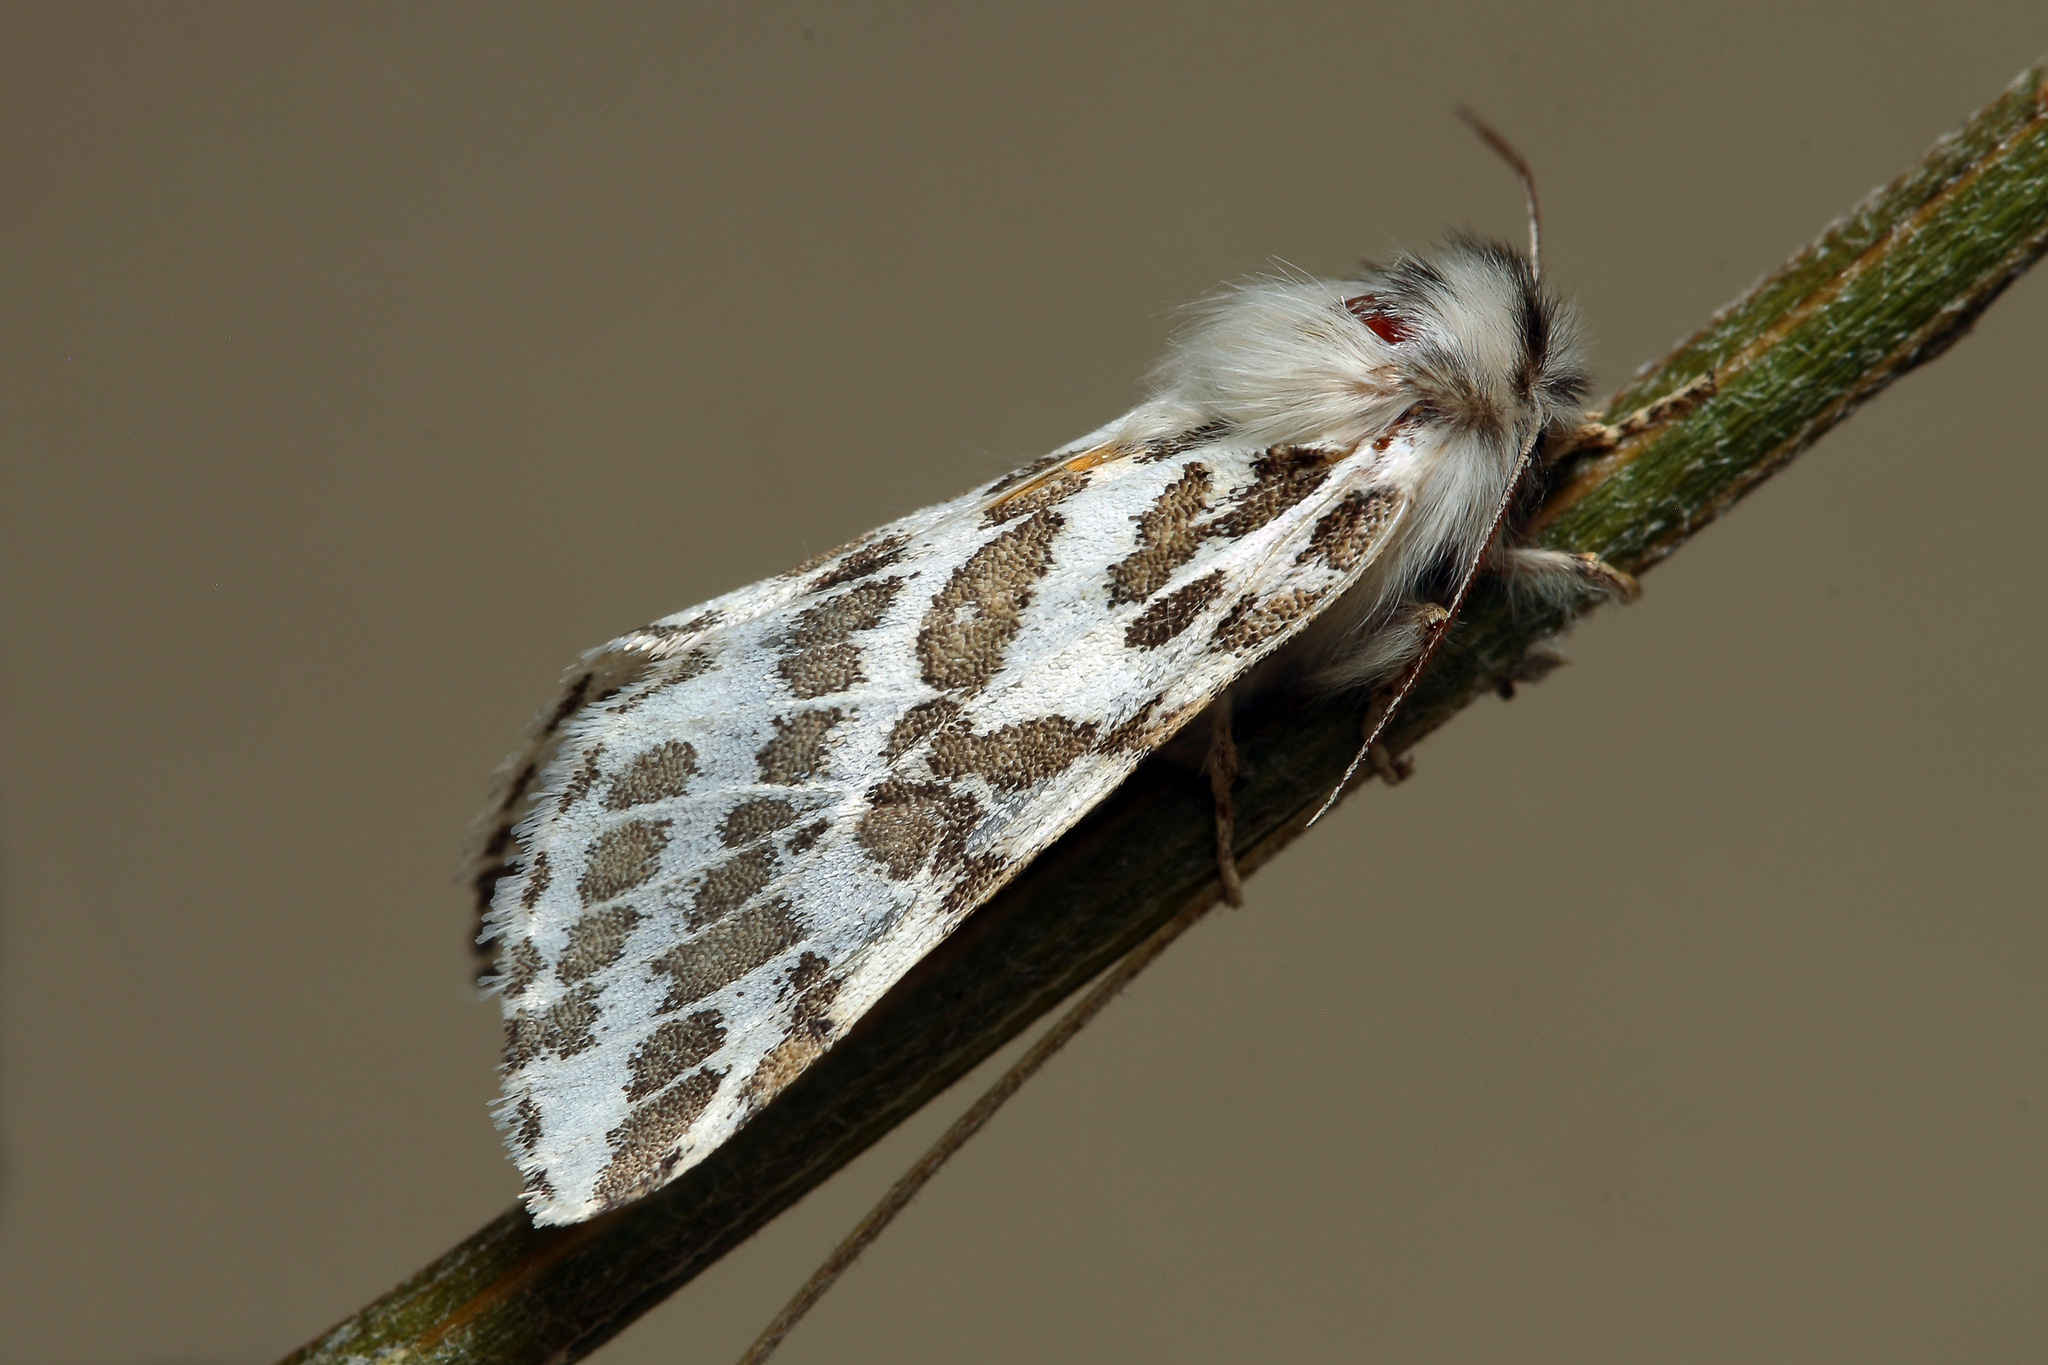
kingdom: Animalia
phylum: Arthropoda
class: Insecta
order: Lepidoptera
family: Erebidae
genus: Lacydes
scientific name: Lacydes spectabilis
